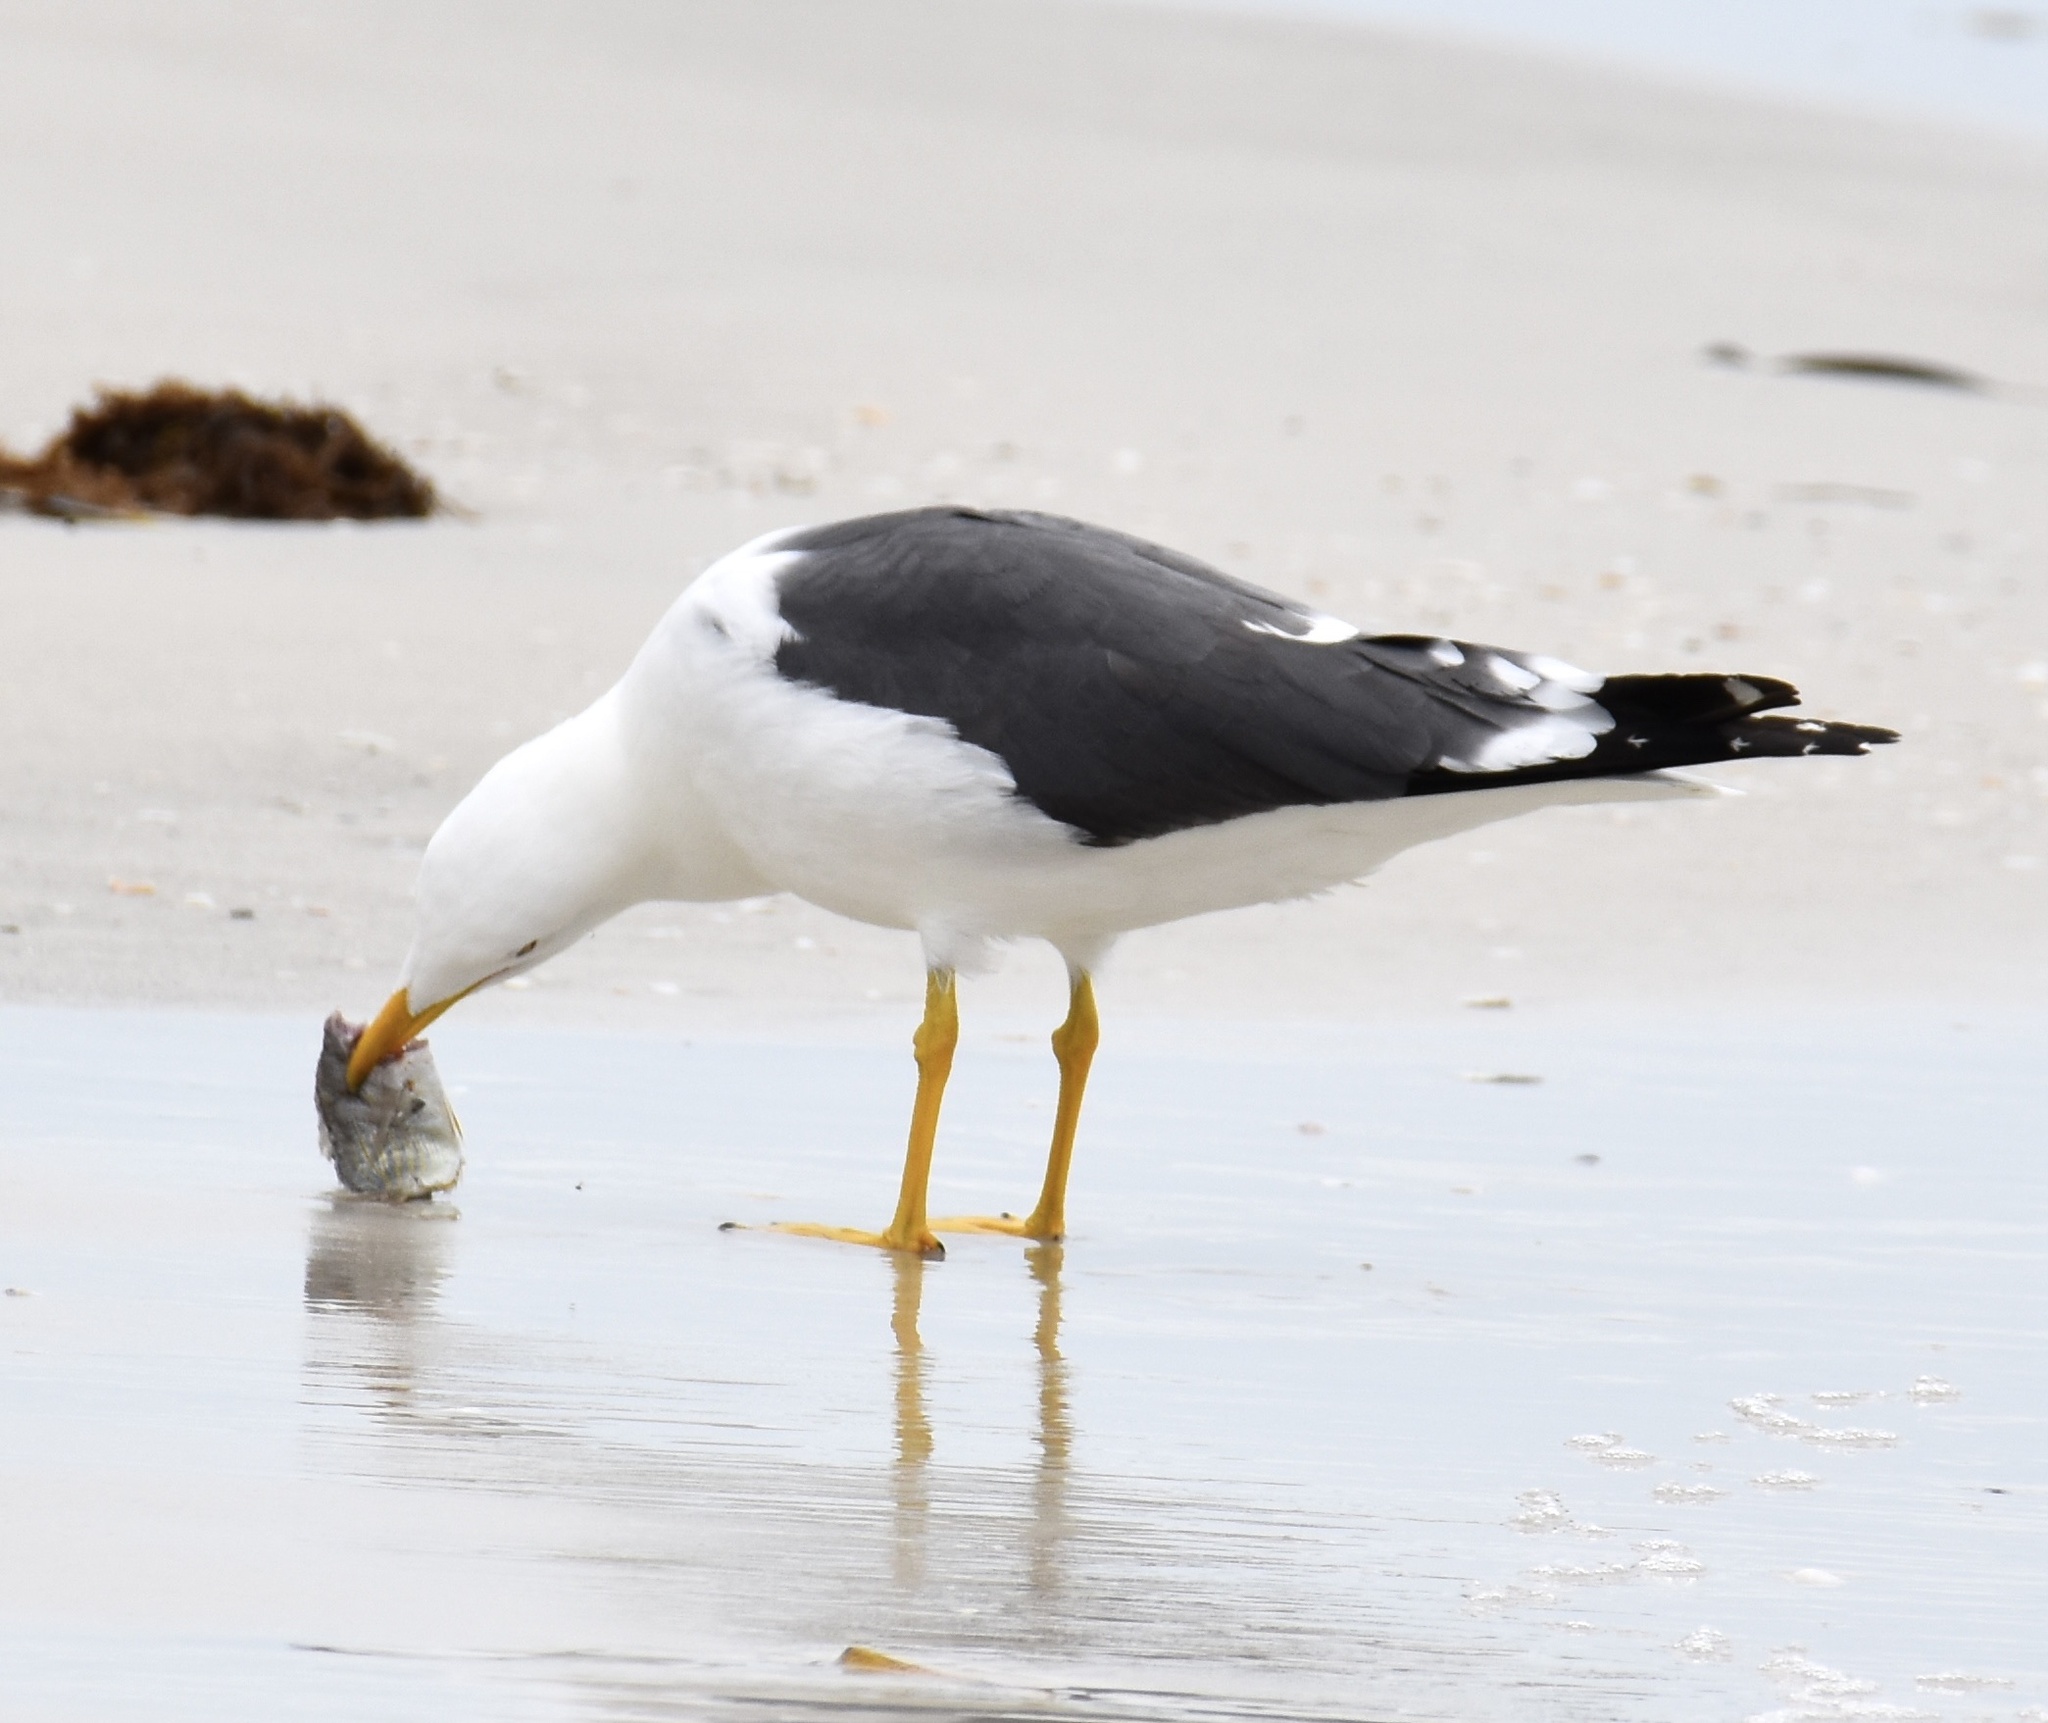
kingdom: Animalia
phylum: Chordata
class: Aves
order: Charadriiformes
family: Laridae
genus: Larus
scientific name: Larus fuscus
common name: Lesser black-backed gull
